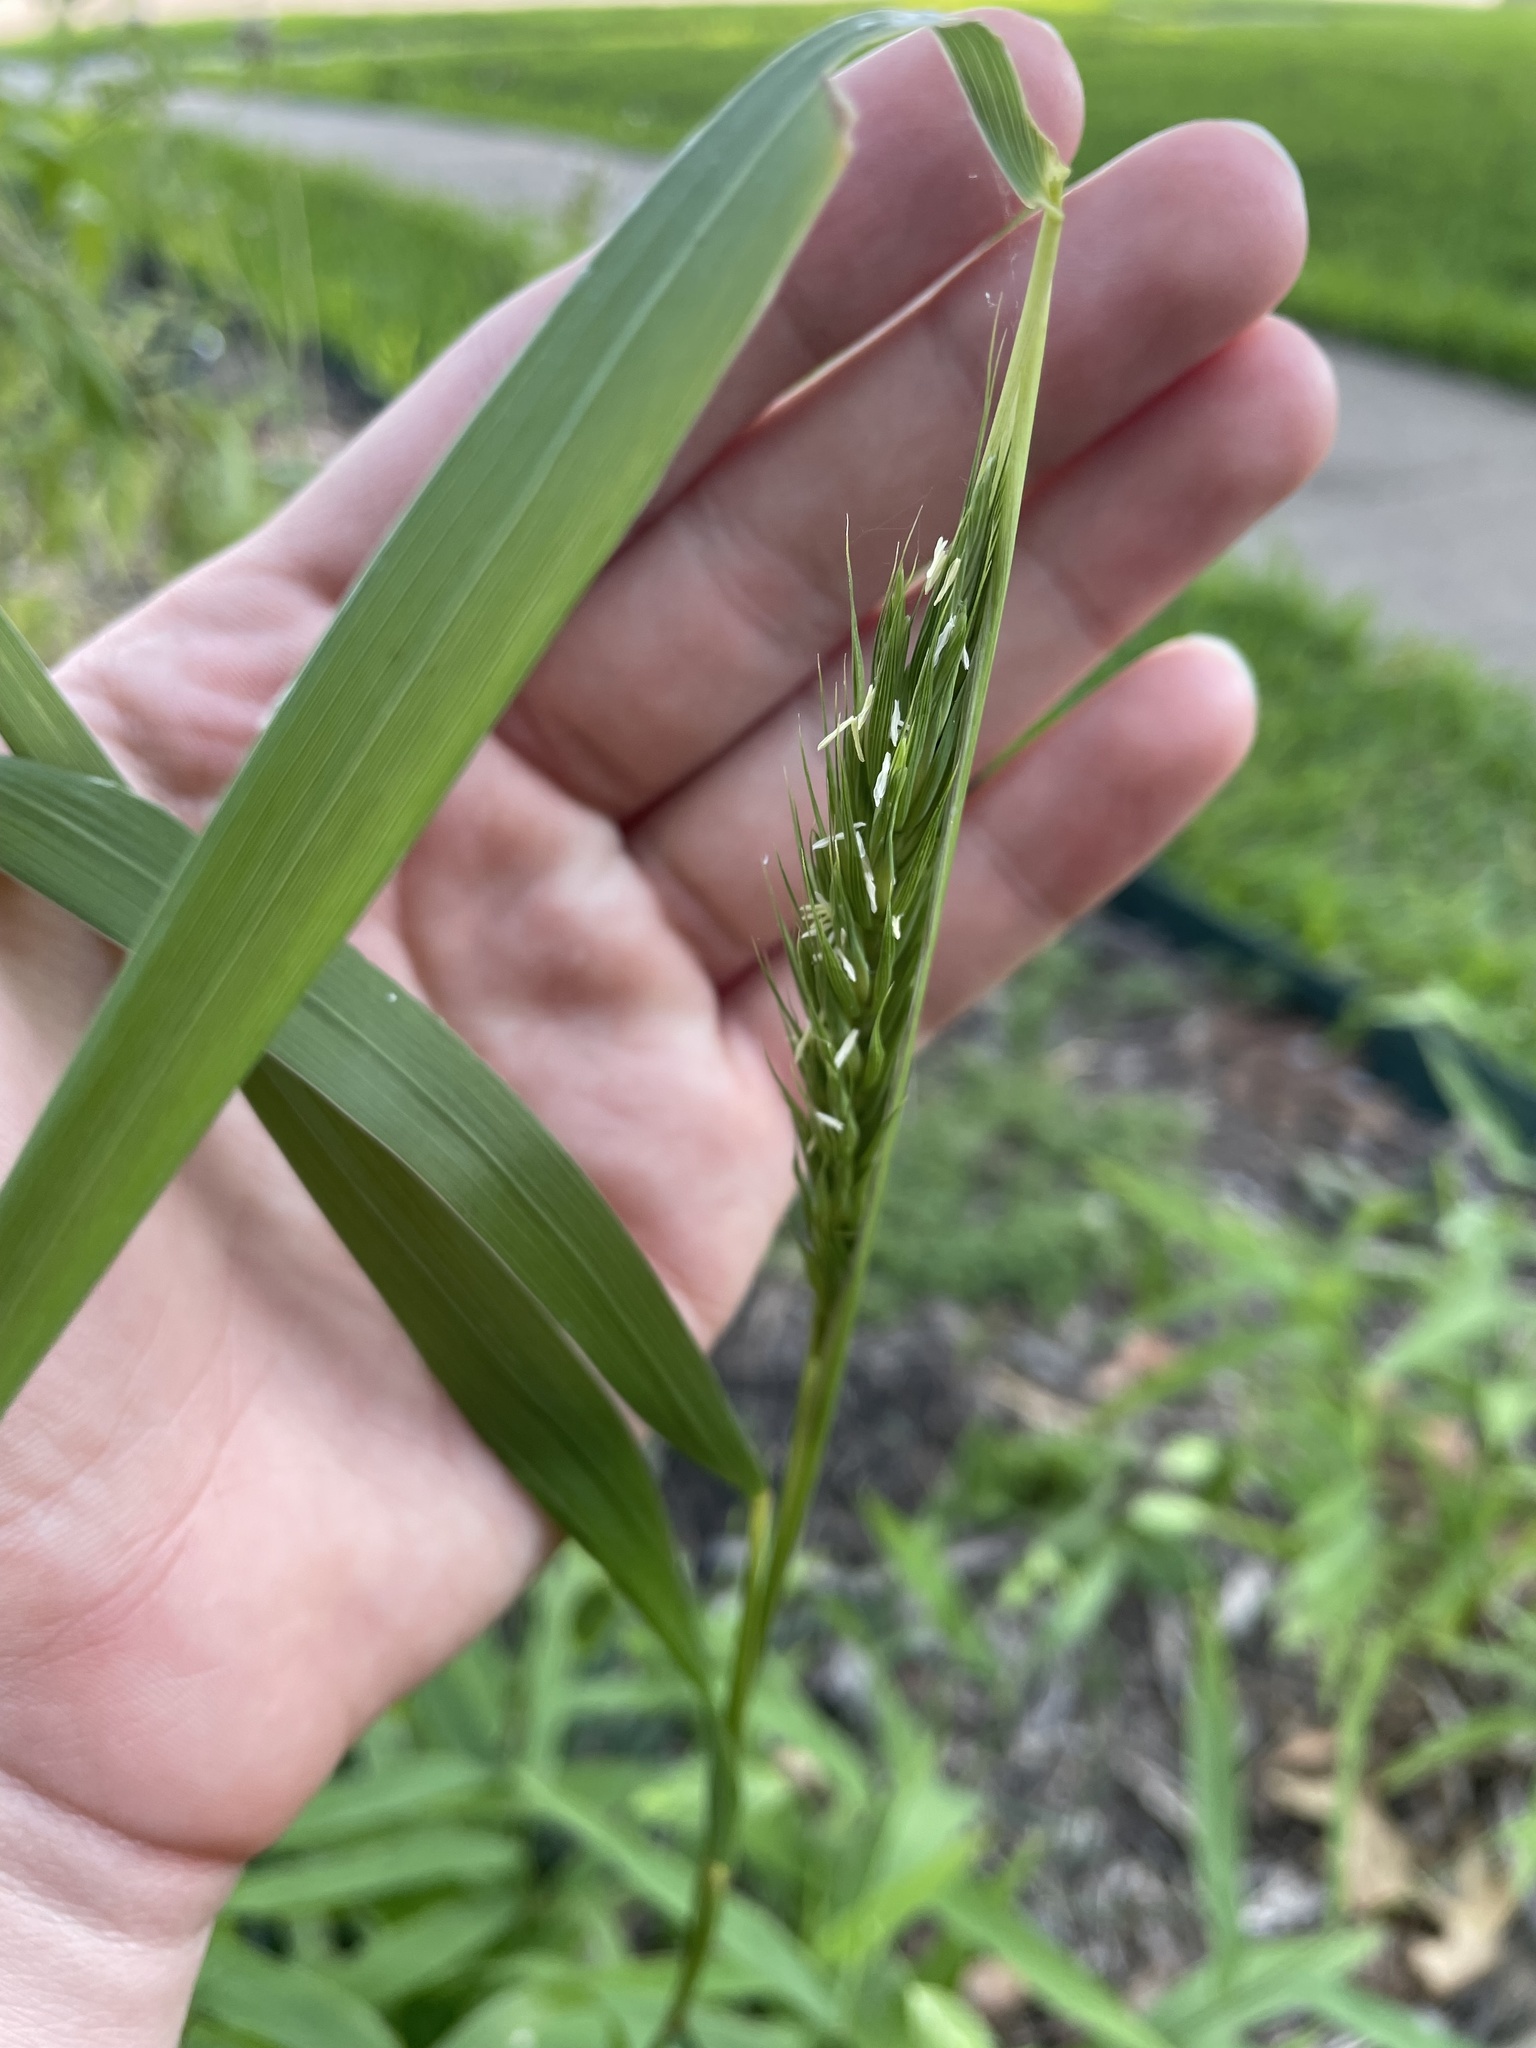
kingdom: Plantae
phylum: Tracheophyta
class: Liliopsida
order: Poales
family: Poaceae
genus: Elymus
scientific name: Elymus virginicus
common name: Common eastern wildrye
